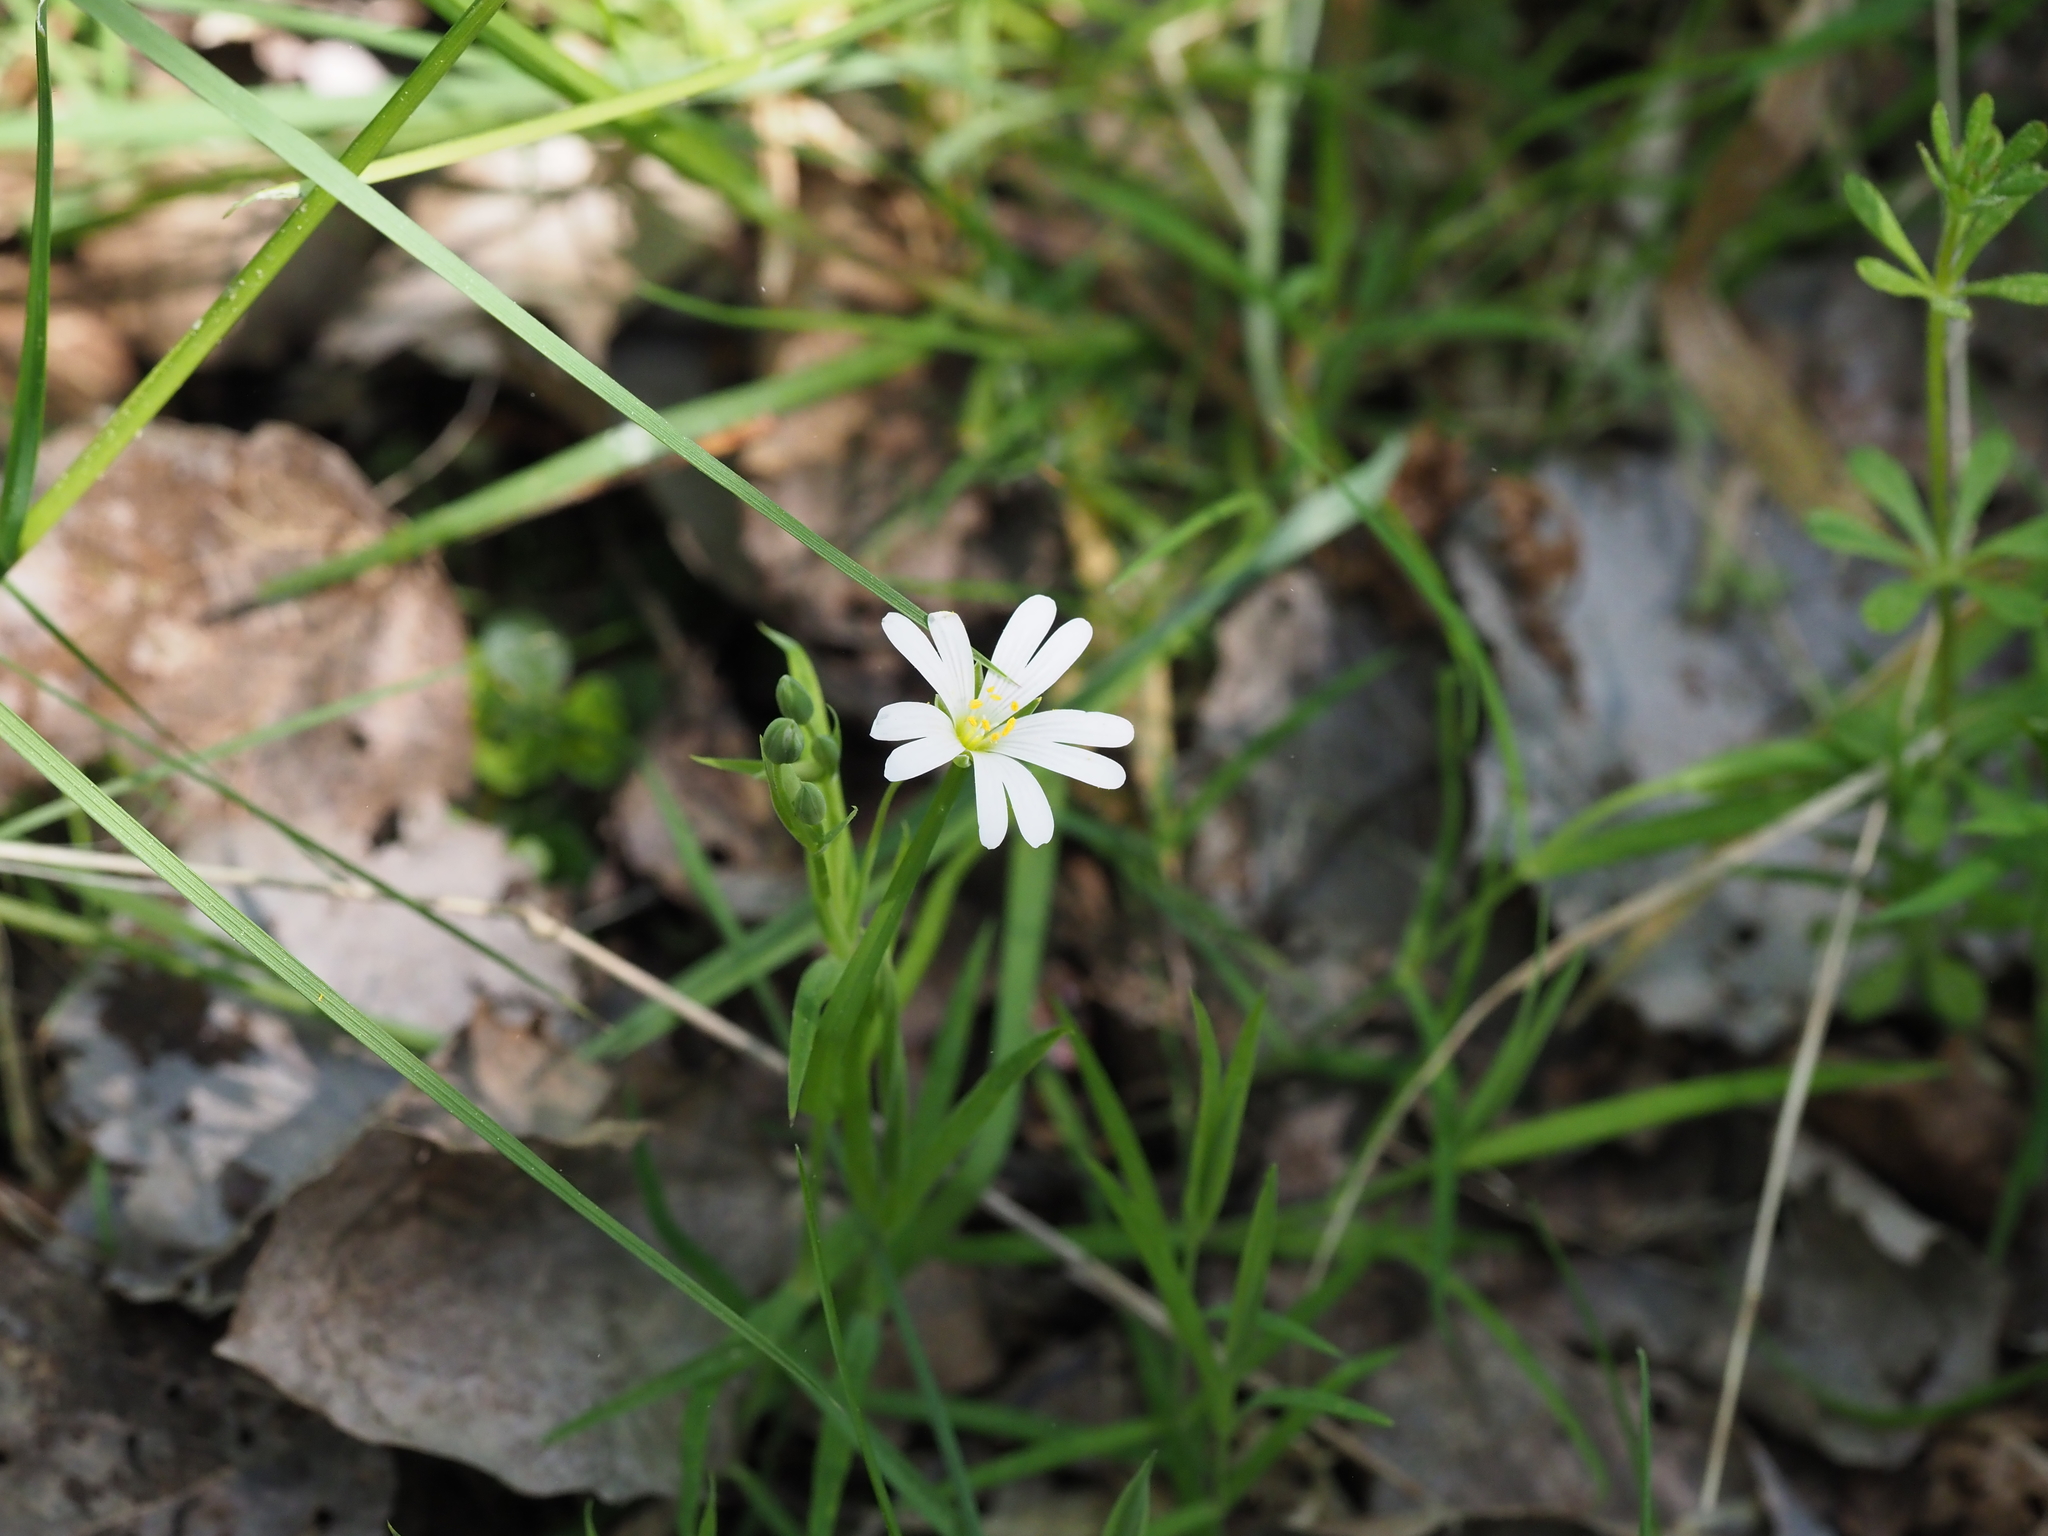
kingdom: Plantae
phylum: Tracheophyta
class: Magnoliopsida
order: Caryophyllales
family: Caryophyllaceae
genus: Rabelera
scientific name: Rabelera holostea
